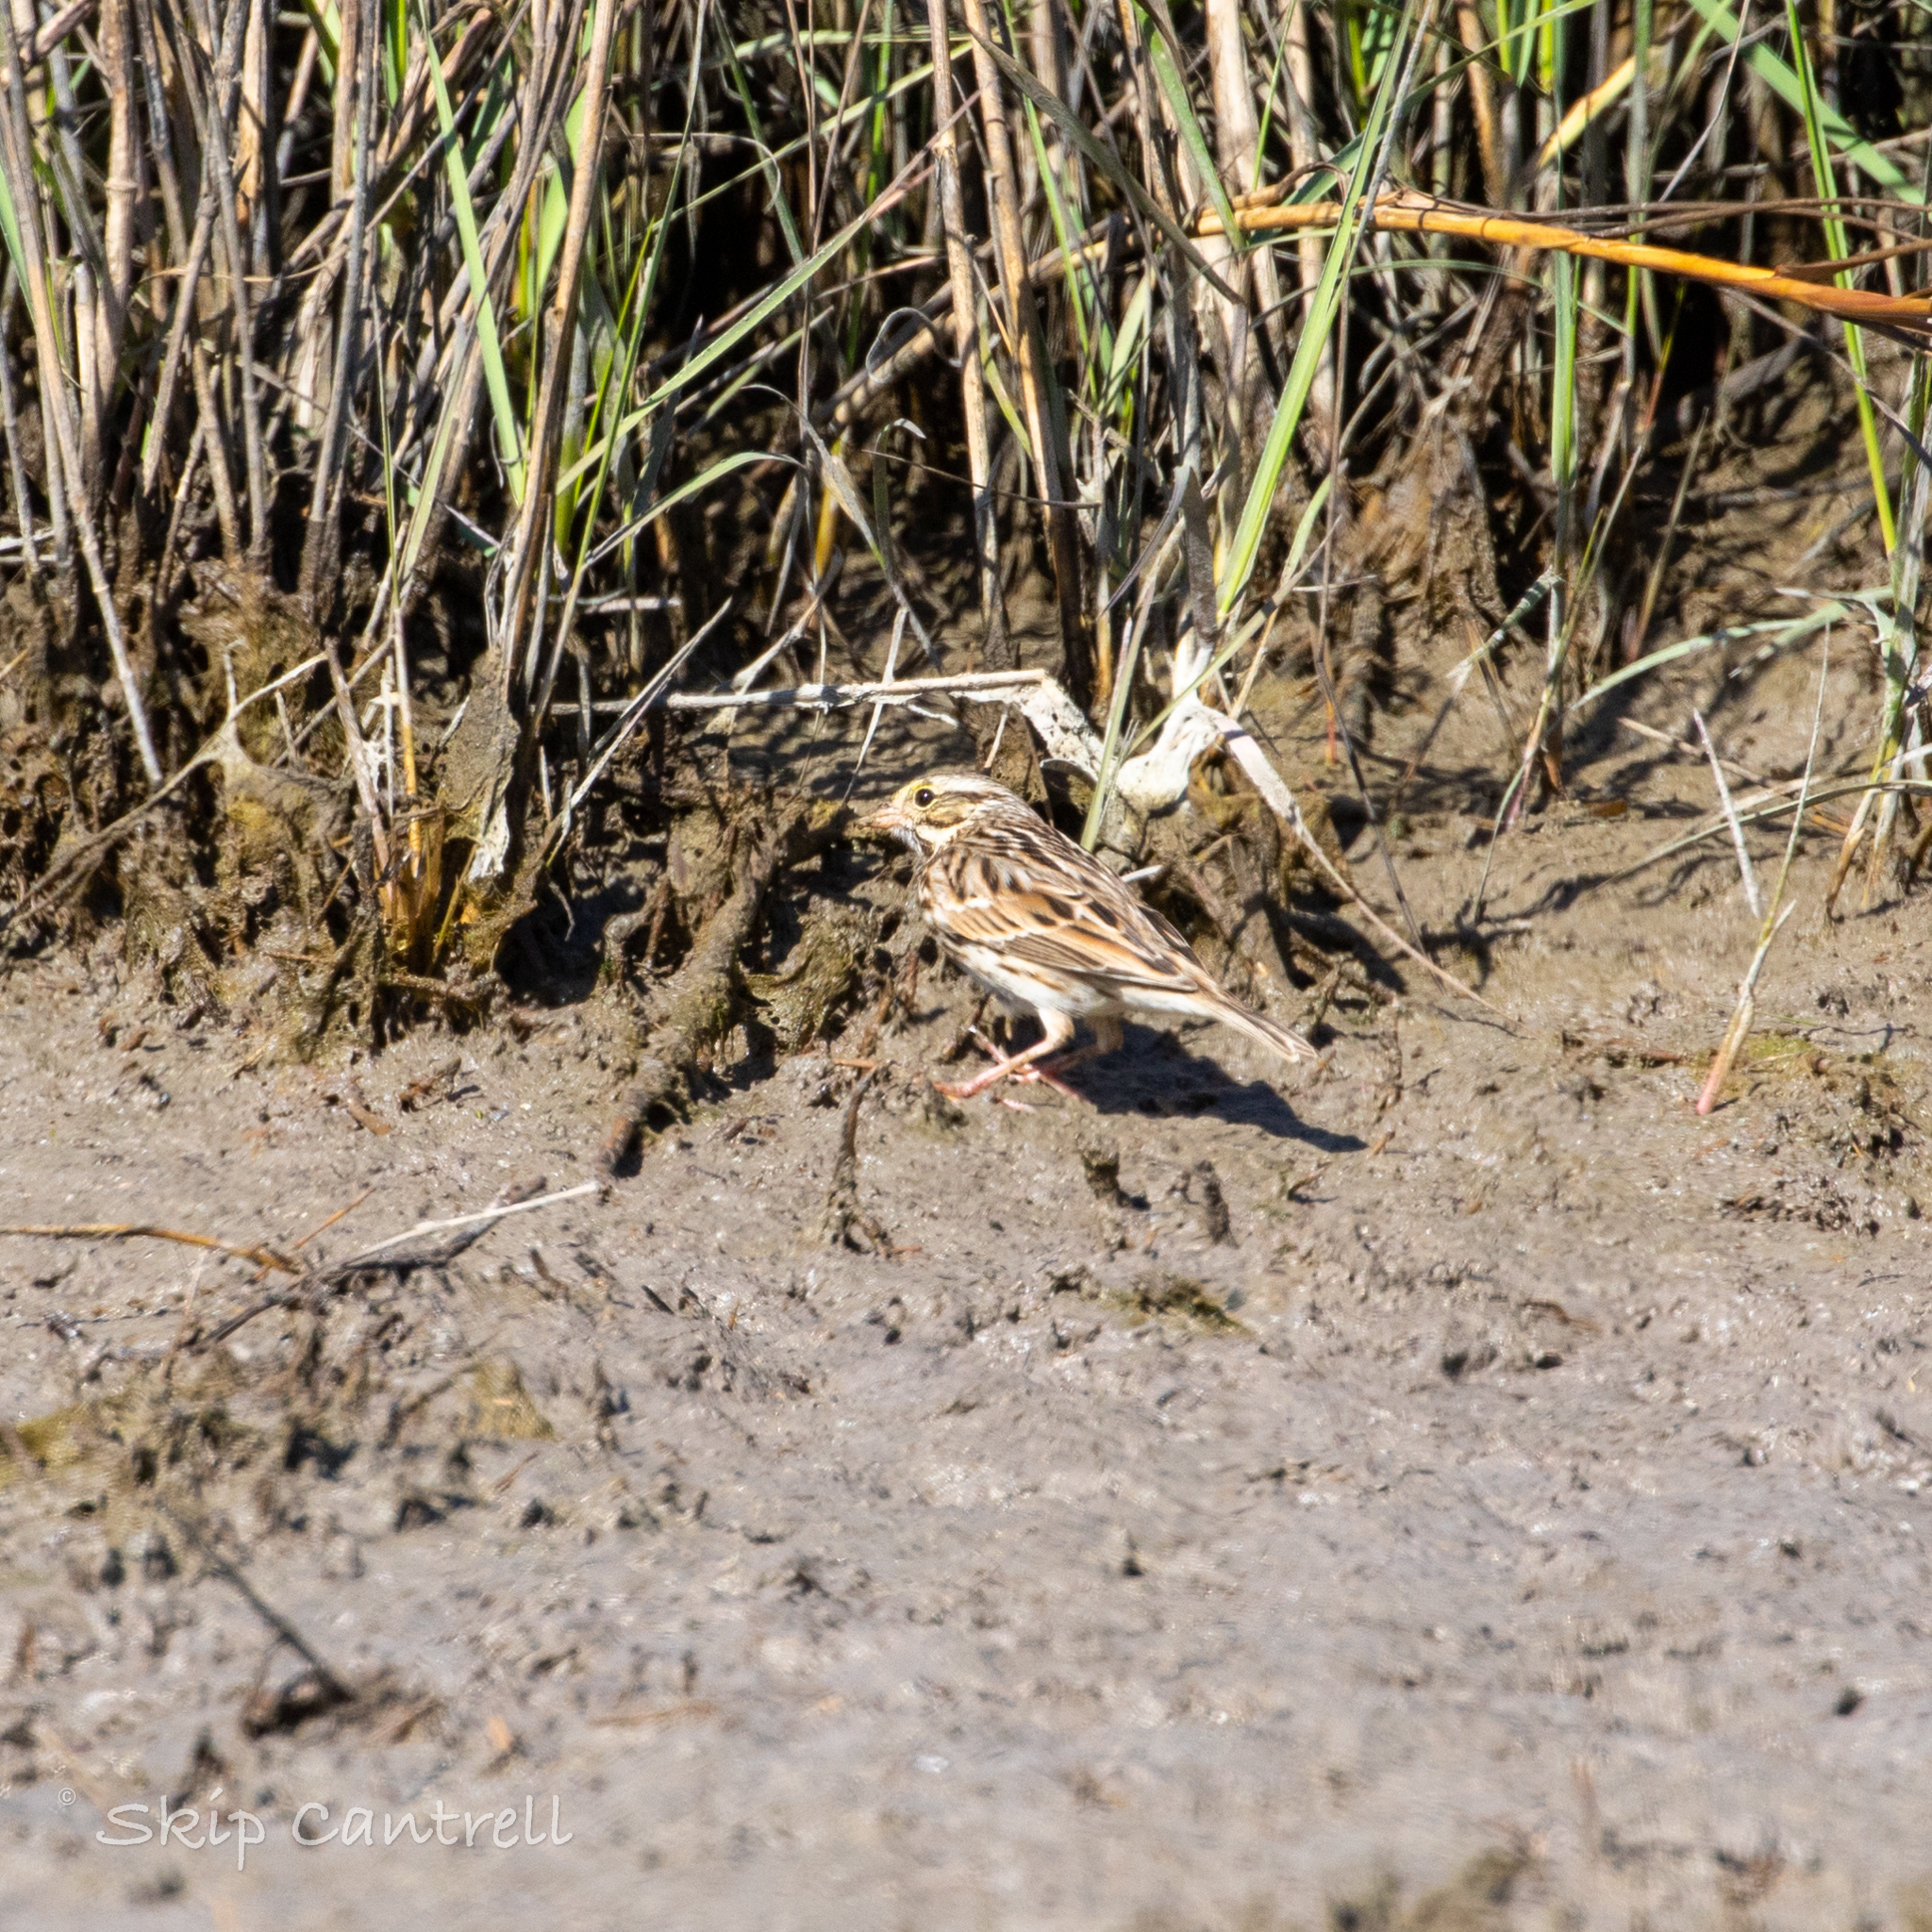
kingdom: Animalia
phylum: Chordata
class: Aves
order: Passeriformes
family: Passerellidae
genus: Passerculus
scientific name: Passerculus sandwichensis
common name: Savannah sparrow
